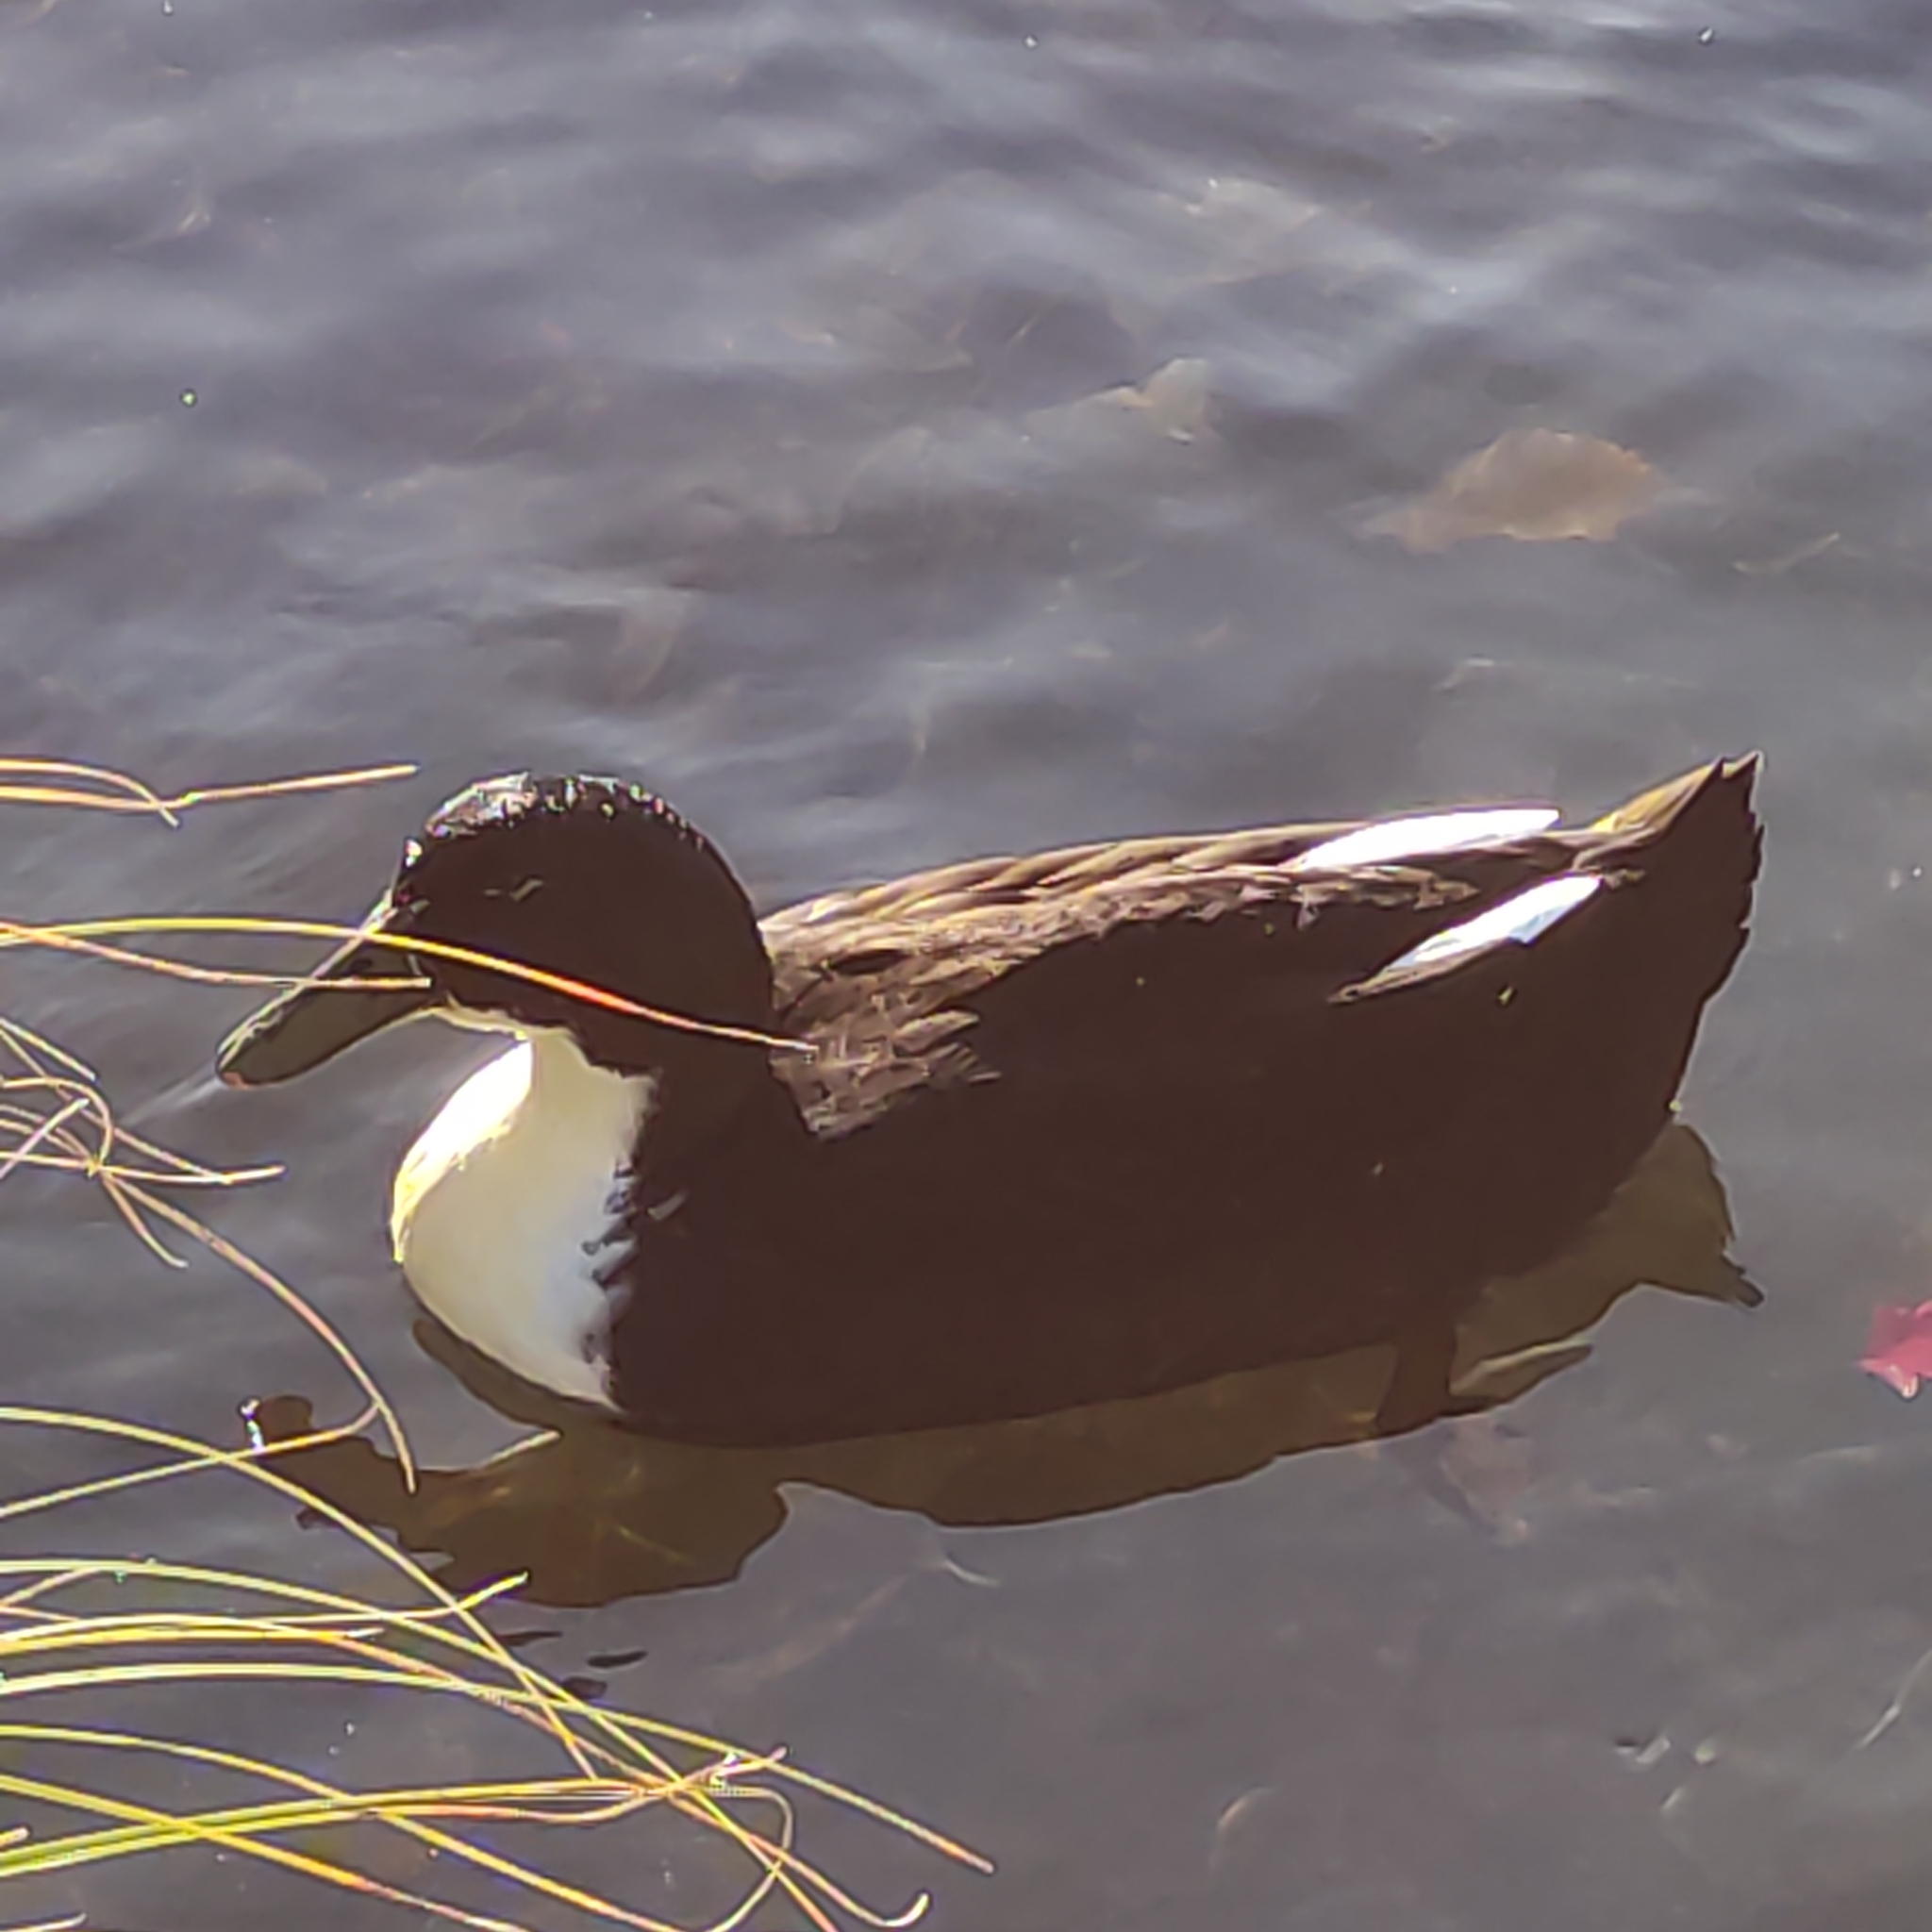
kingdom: Animalia
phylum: Chordata
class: Aves
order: Anseriformes
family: Anatidae
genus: Anas
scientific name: Anas platyrhynchos
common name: Mallard
